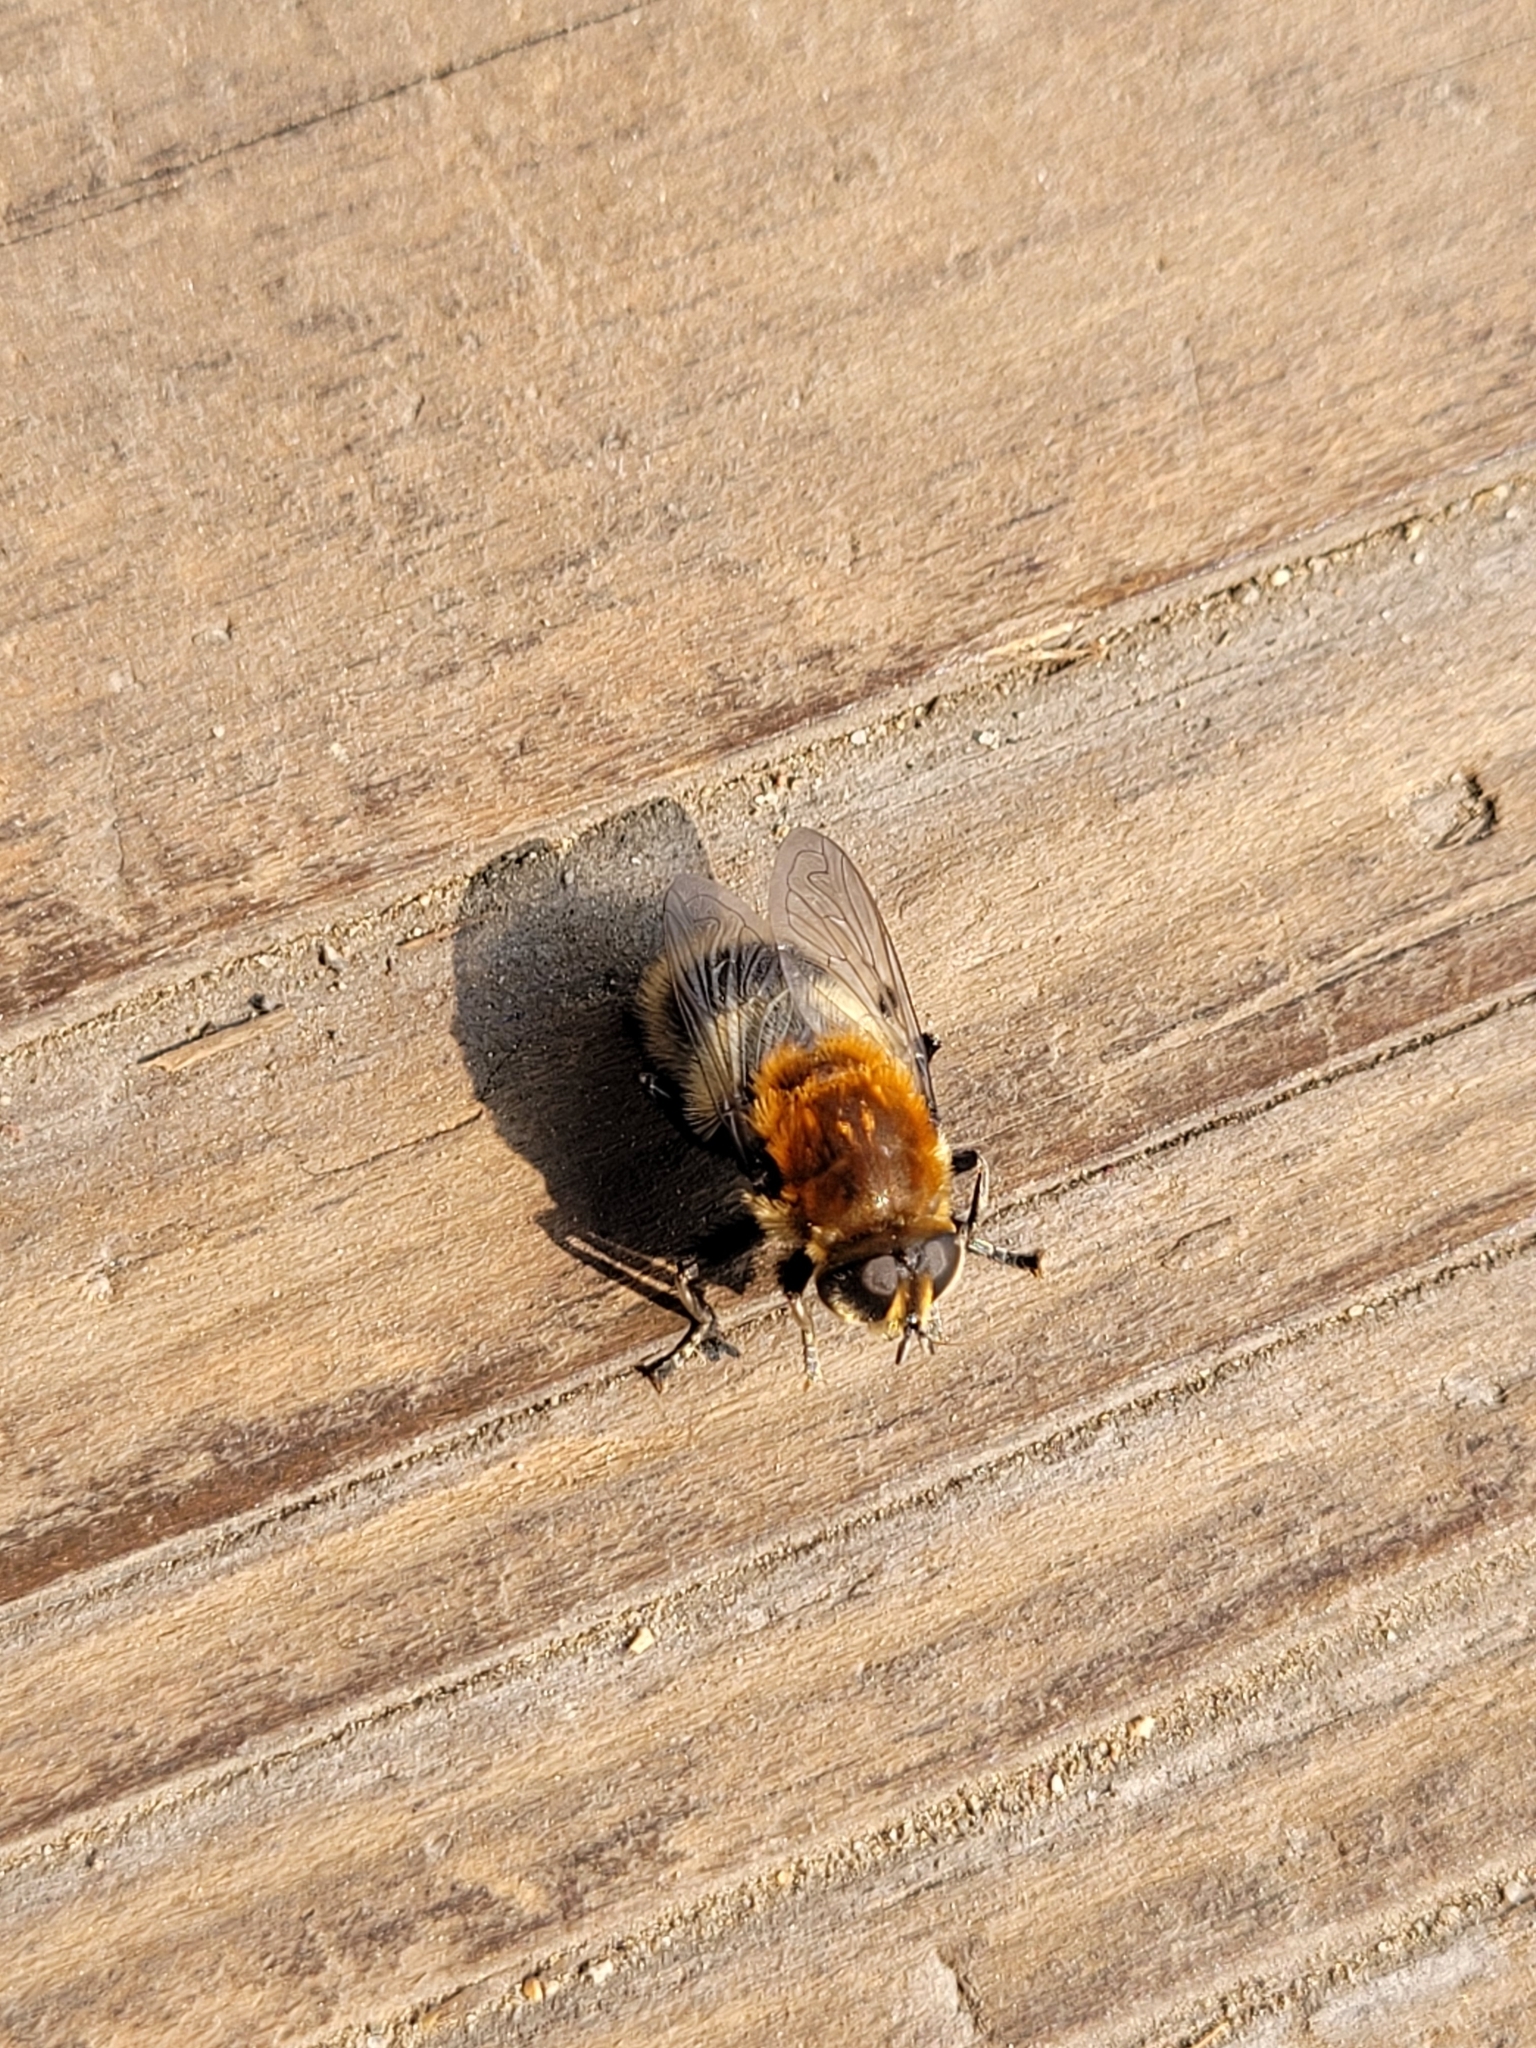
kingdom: Animalia
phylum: Arthropoda
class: Insecta
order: Diptera
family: Syrphidae
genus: Merodon
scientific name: Merodon equestris
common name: Greater bulb-fly
